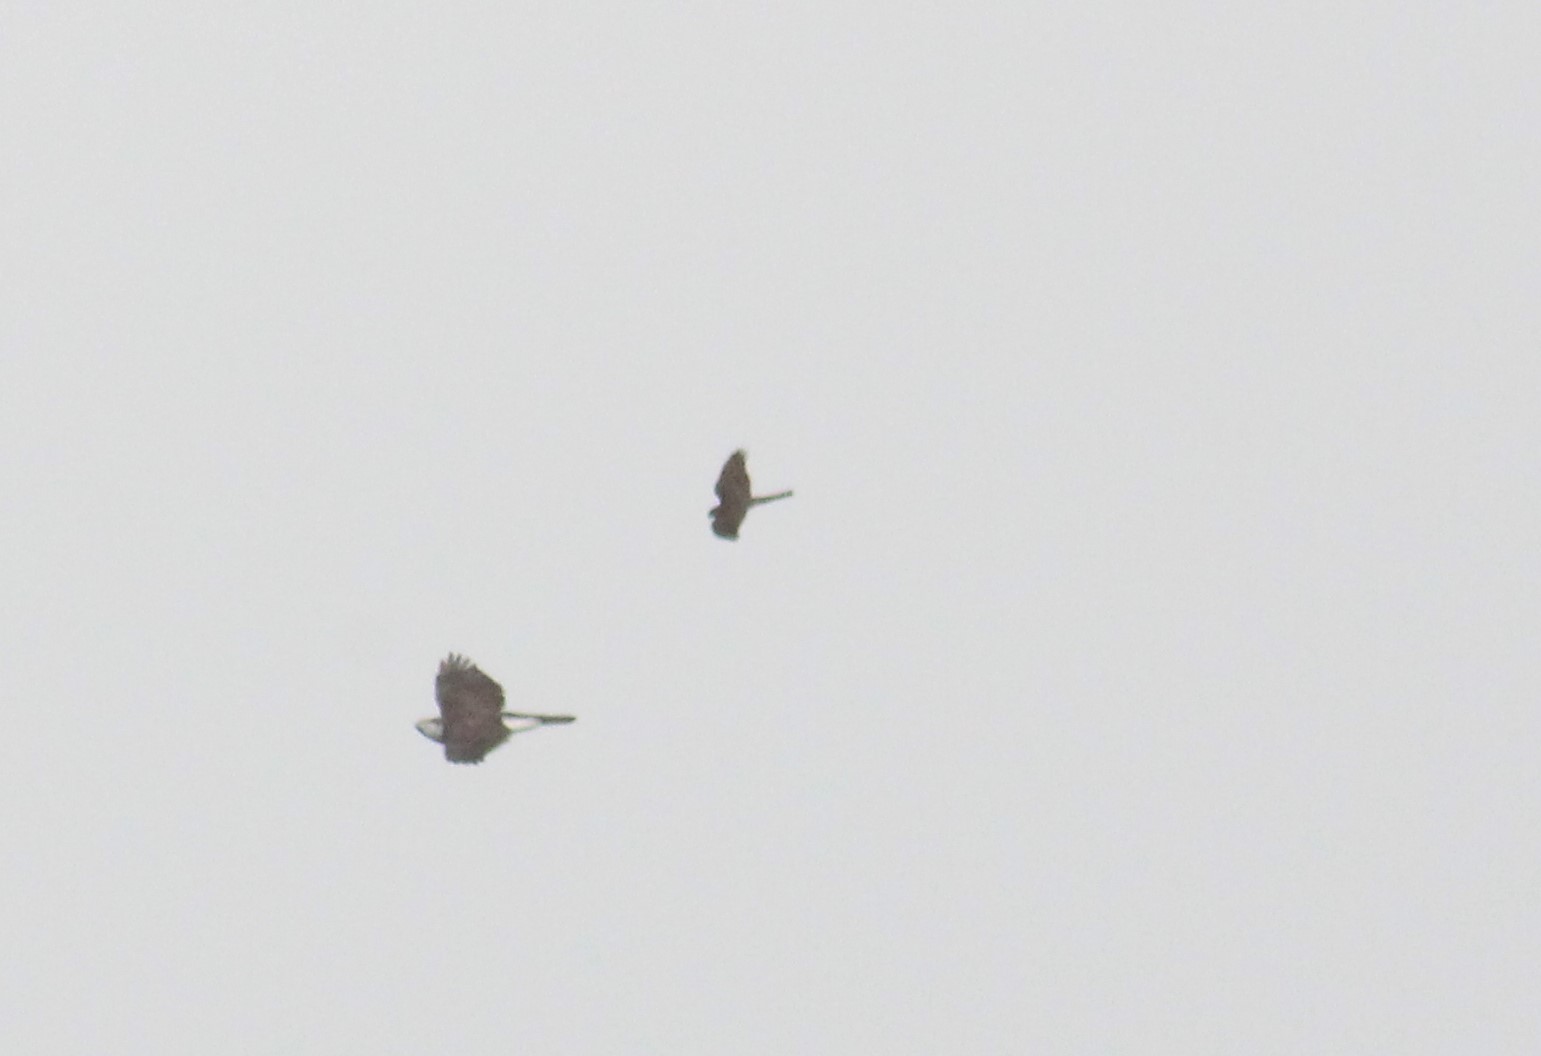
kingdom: Animalia
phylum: Chordata
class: Aves
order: Accipitriformes
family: Accipitridae
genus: Accipiter
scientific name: Accipiter nisus
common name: Eurasian sparrowhawk
